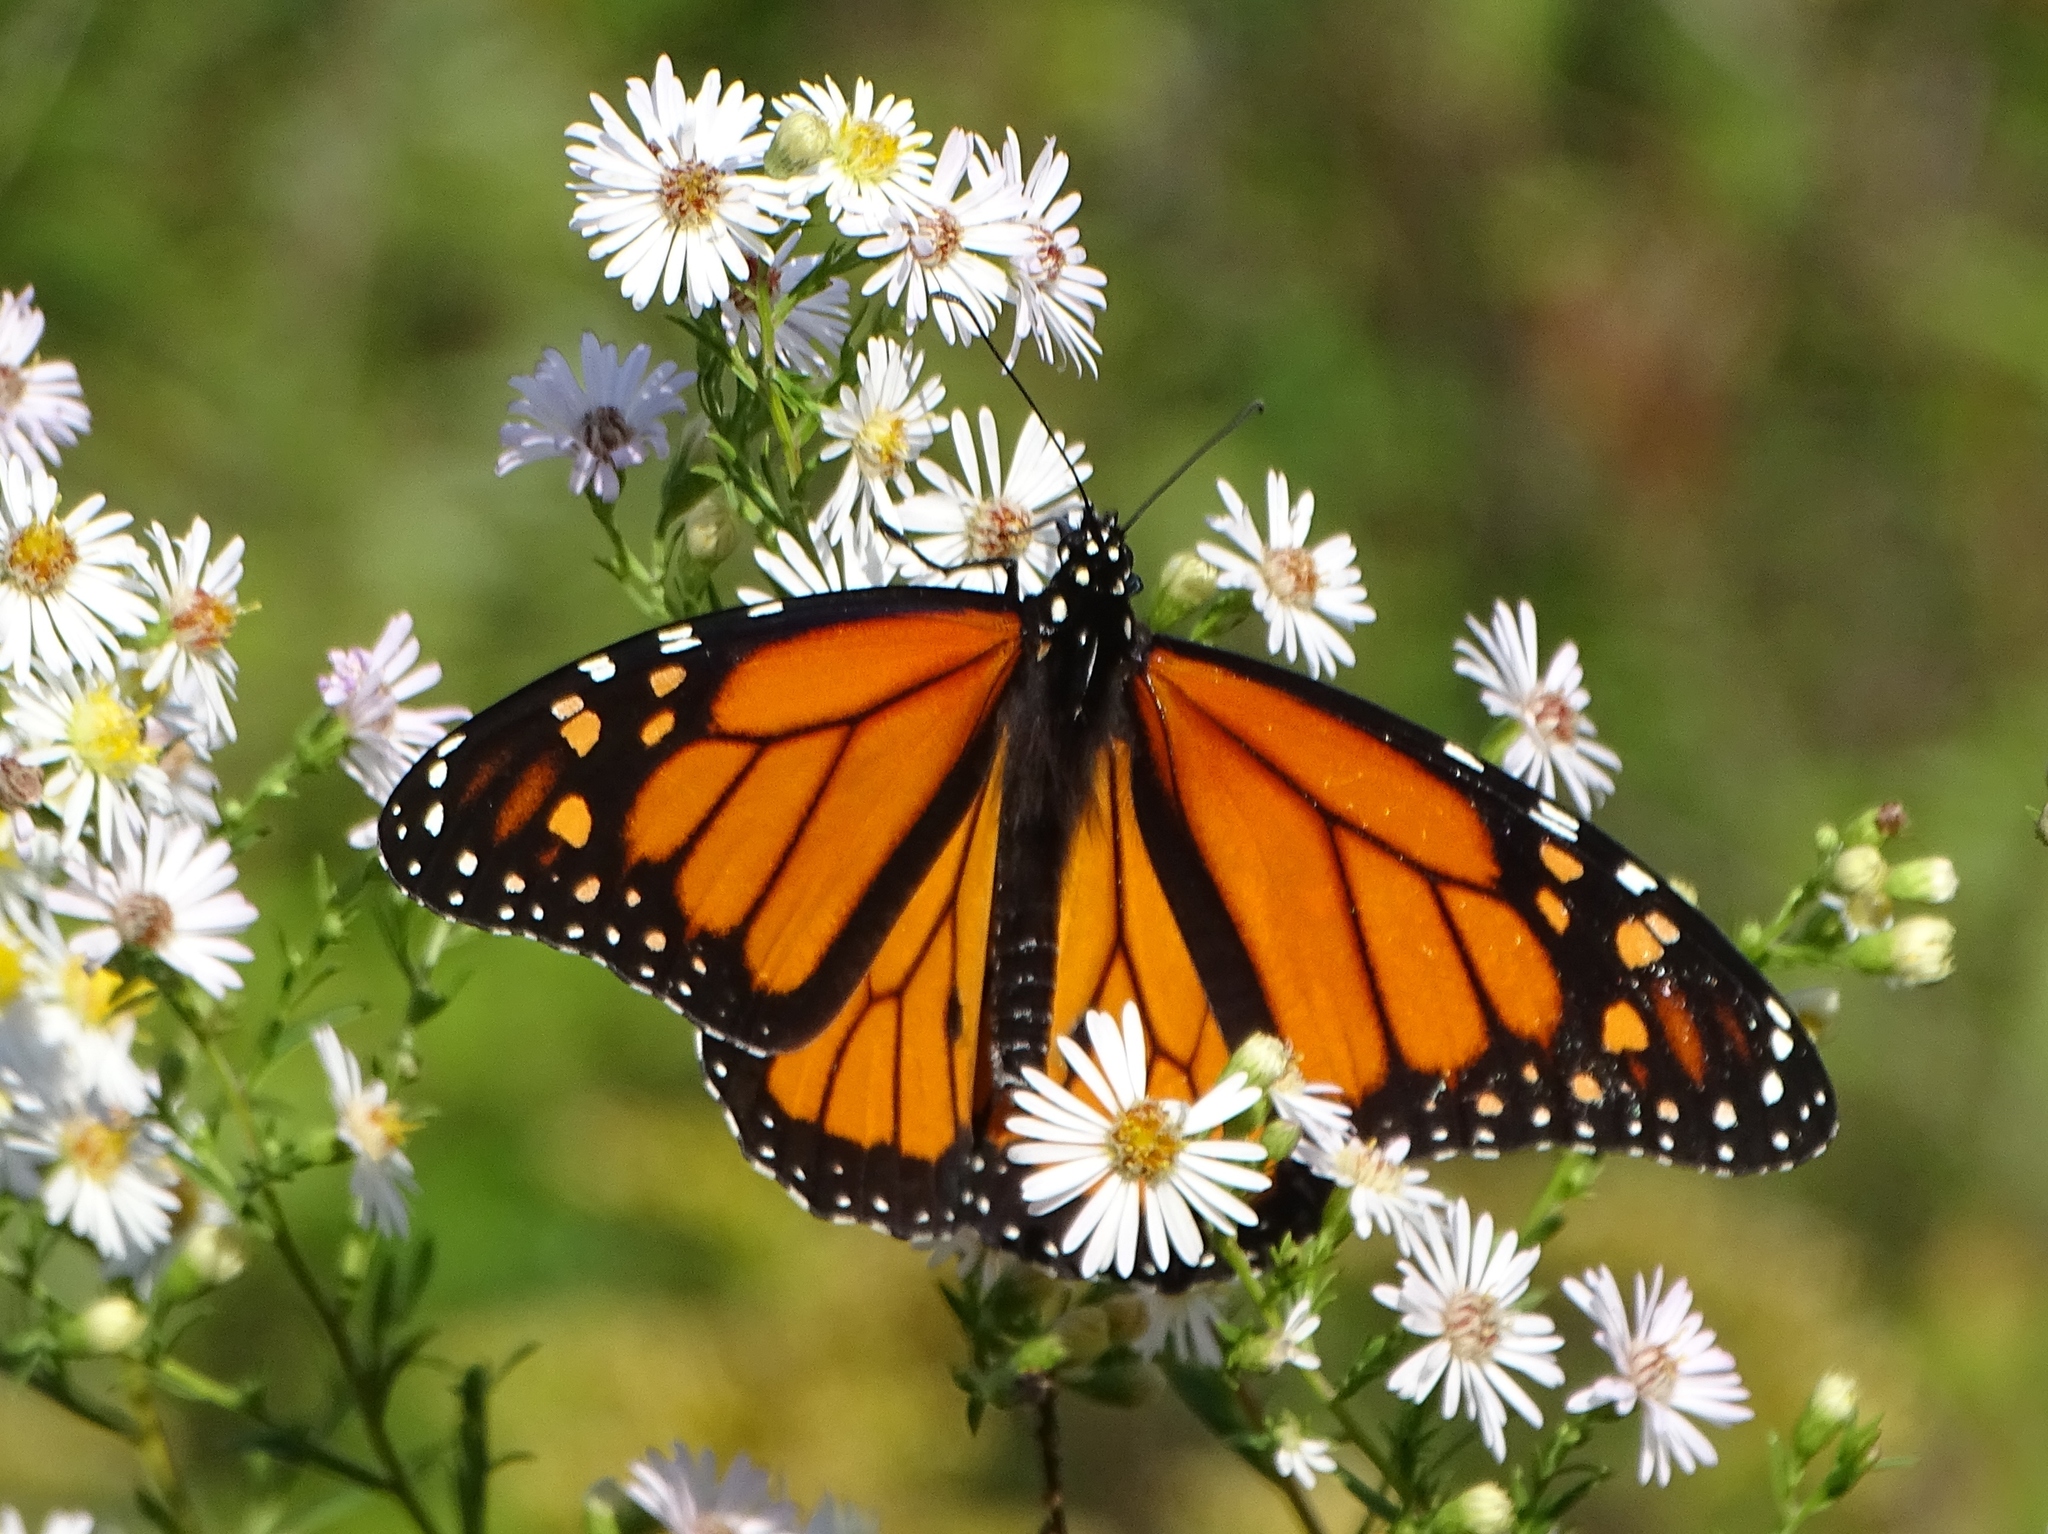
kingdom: Animalia
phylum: Arthropoda
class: Insecta
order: Lepidoptera
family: Nymphalidae
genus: Danaus
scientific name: Danaus plexippus
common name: Monarch
